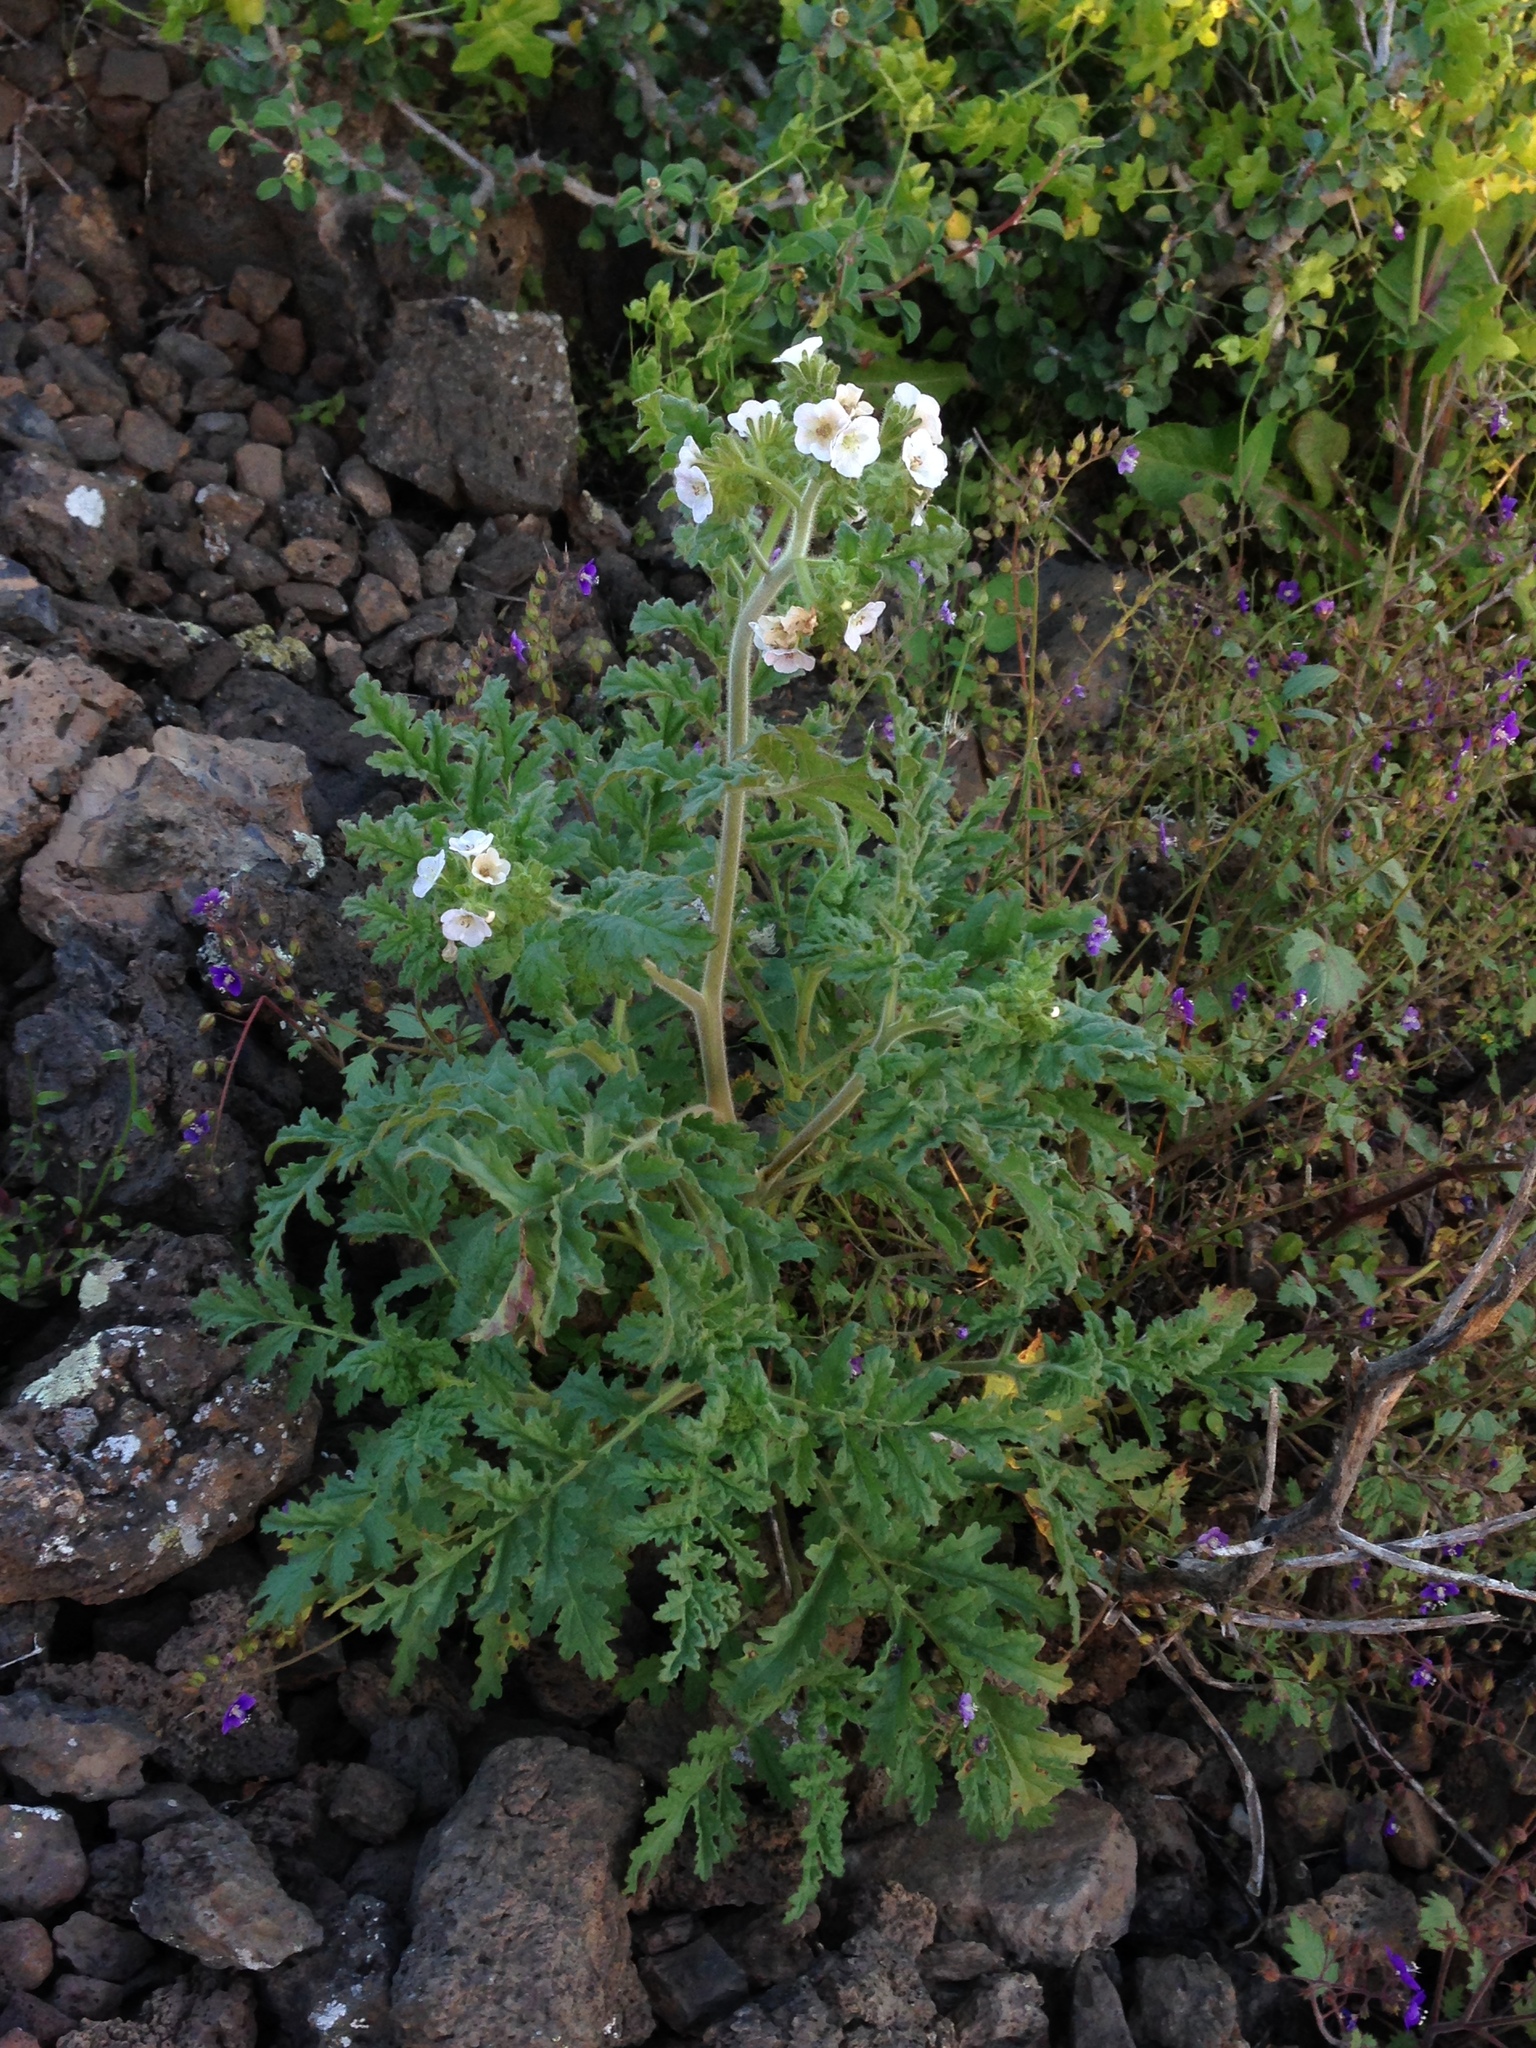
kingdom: Plantae
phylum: Tracheophyta
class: Magnoliopsida
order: Boraginales
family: Hydrophyllaceae
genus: Phacelia
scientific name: Phacelia ixodes
